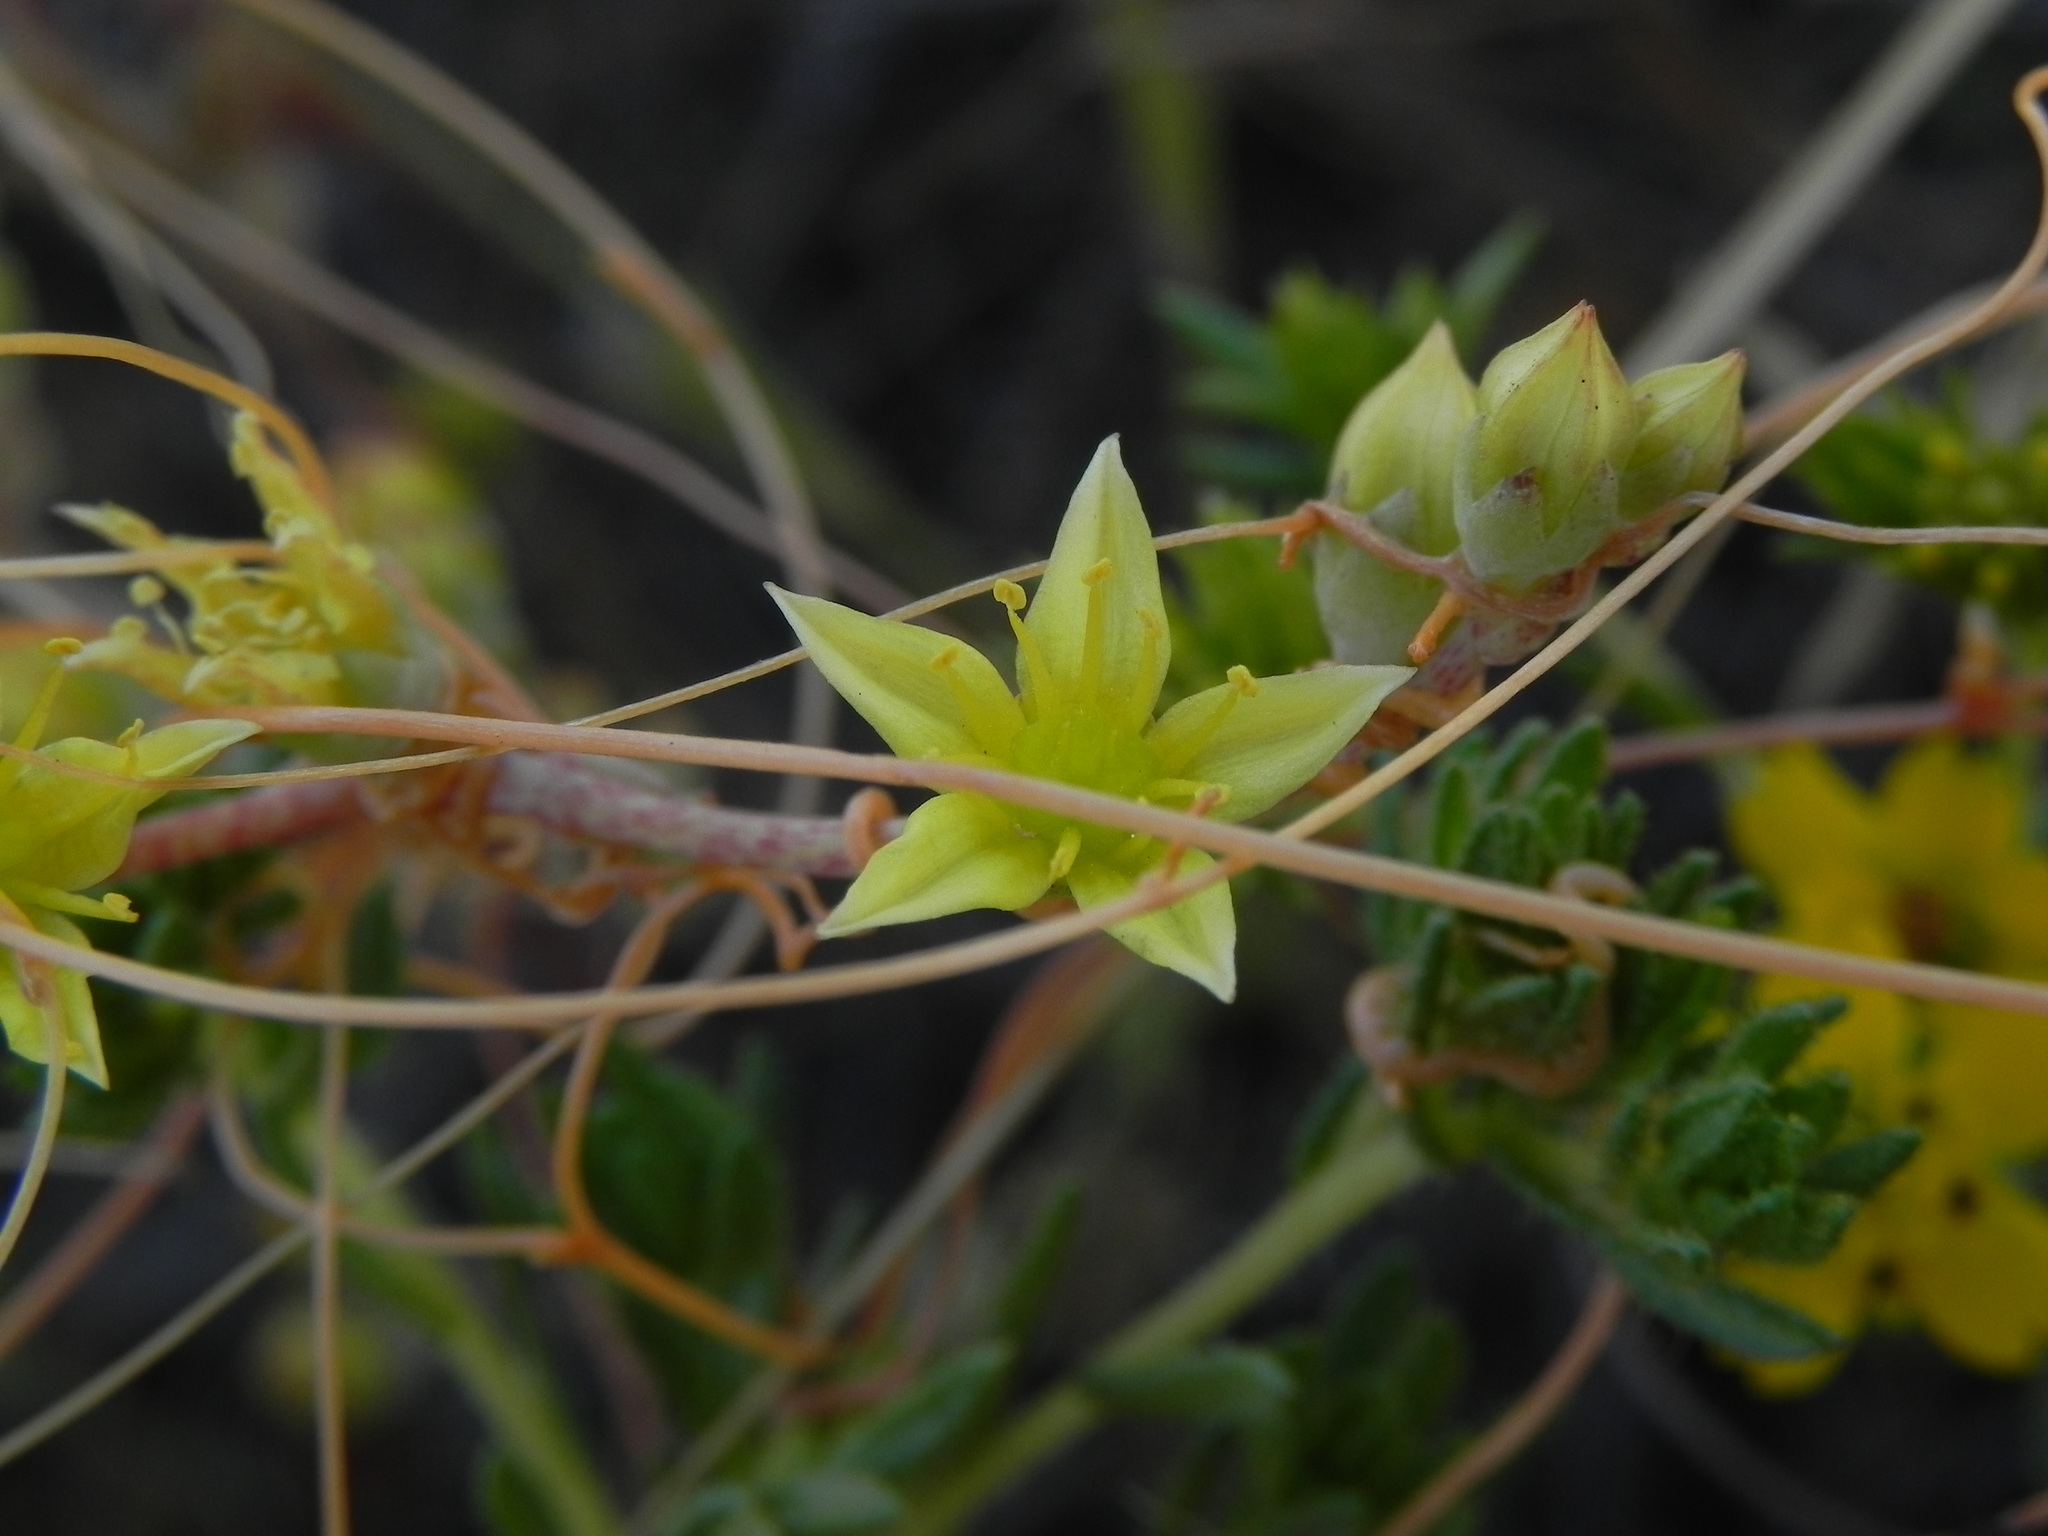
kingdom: Plantae
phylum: Tracheophyta
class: Magnoliopsida
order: Saxifragales
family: Crassulaceae
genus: Dudleya
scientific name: Dudleya variegata
